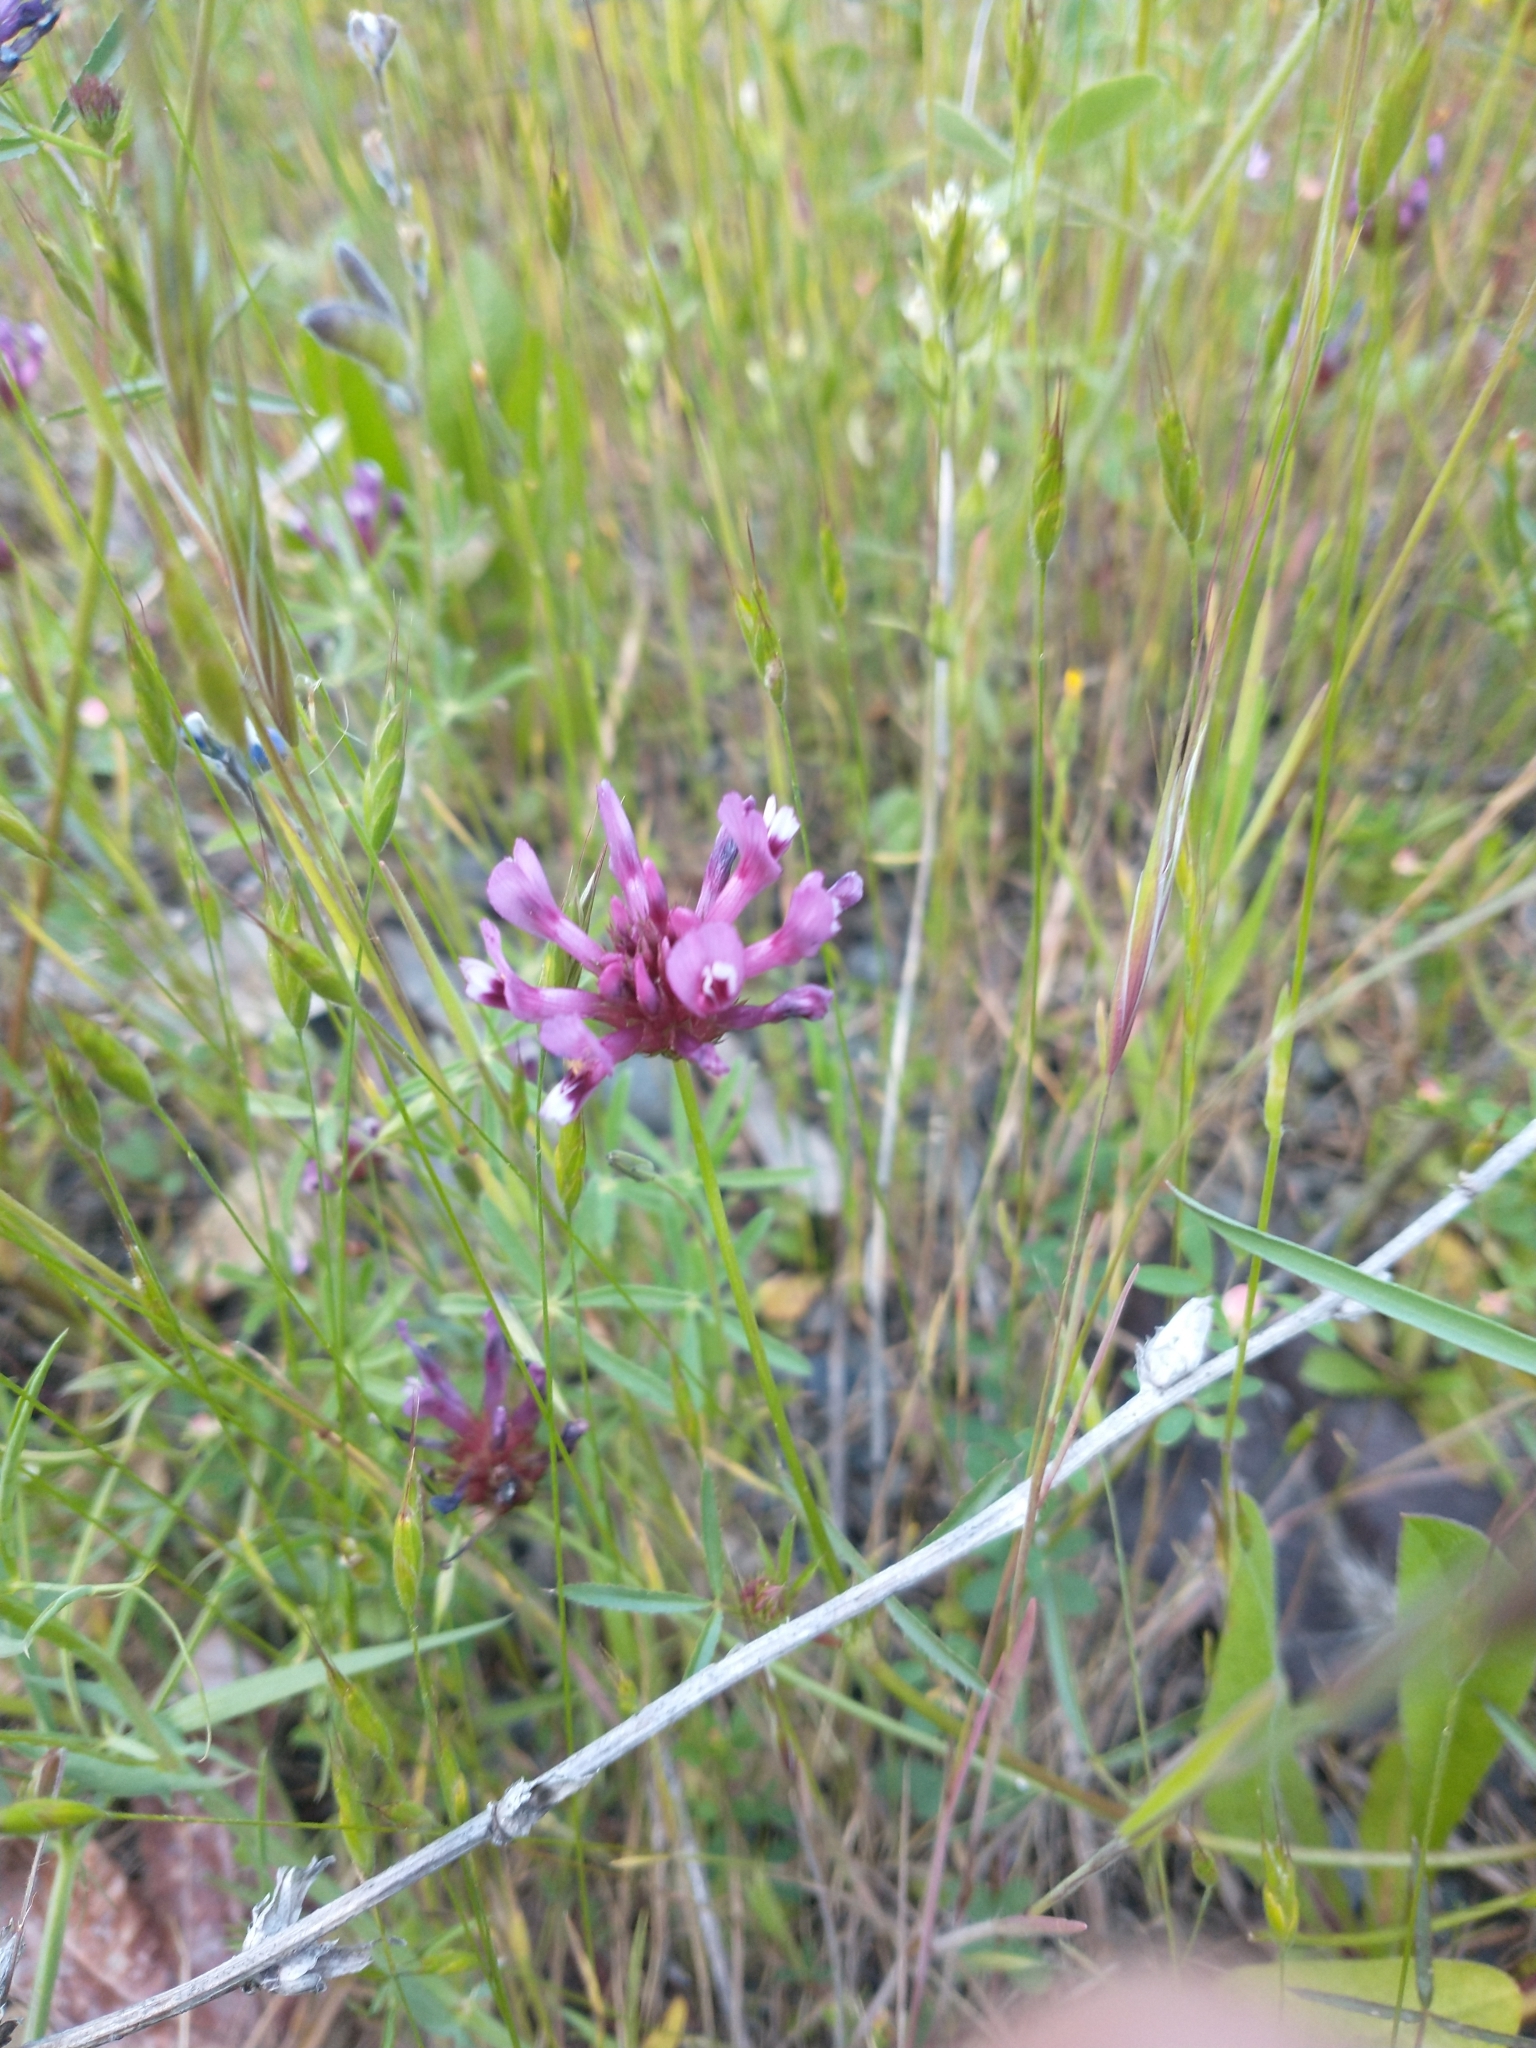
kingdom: Plantae
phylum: Tracheophyta
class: Magnoliopsida
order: Fabales
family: Fabaceae
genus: Trifolium
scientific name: Trifolium willdenovii
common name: Tomcat clover
